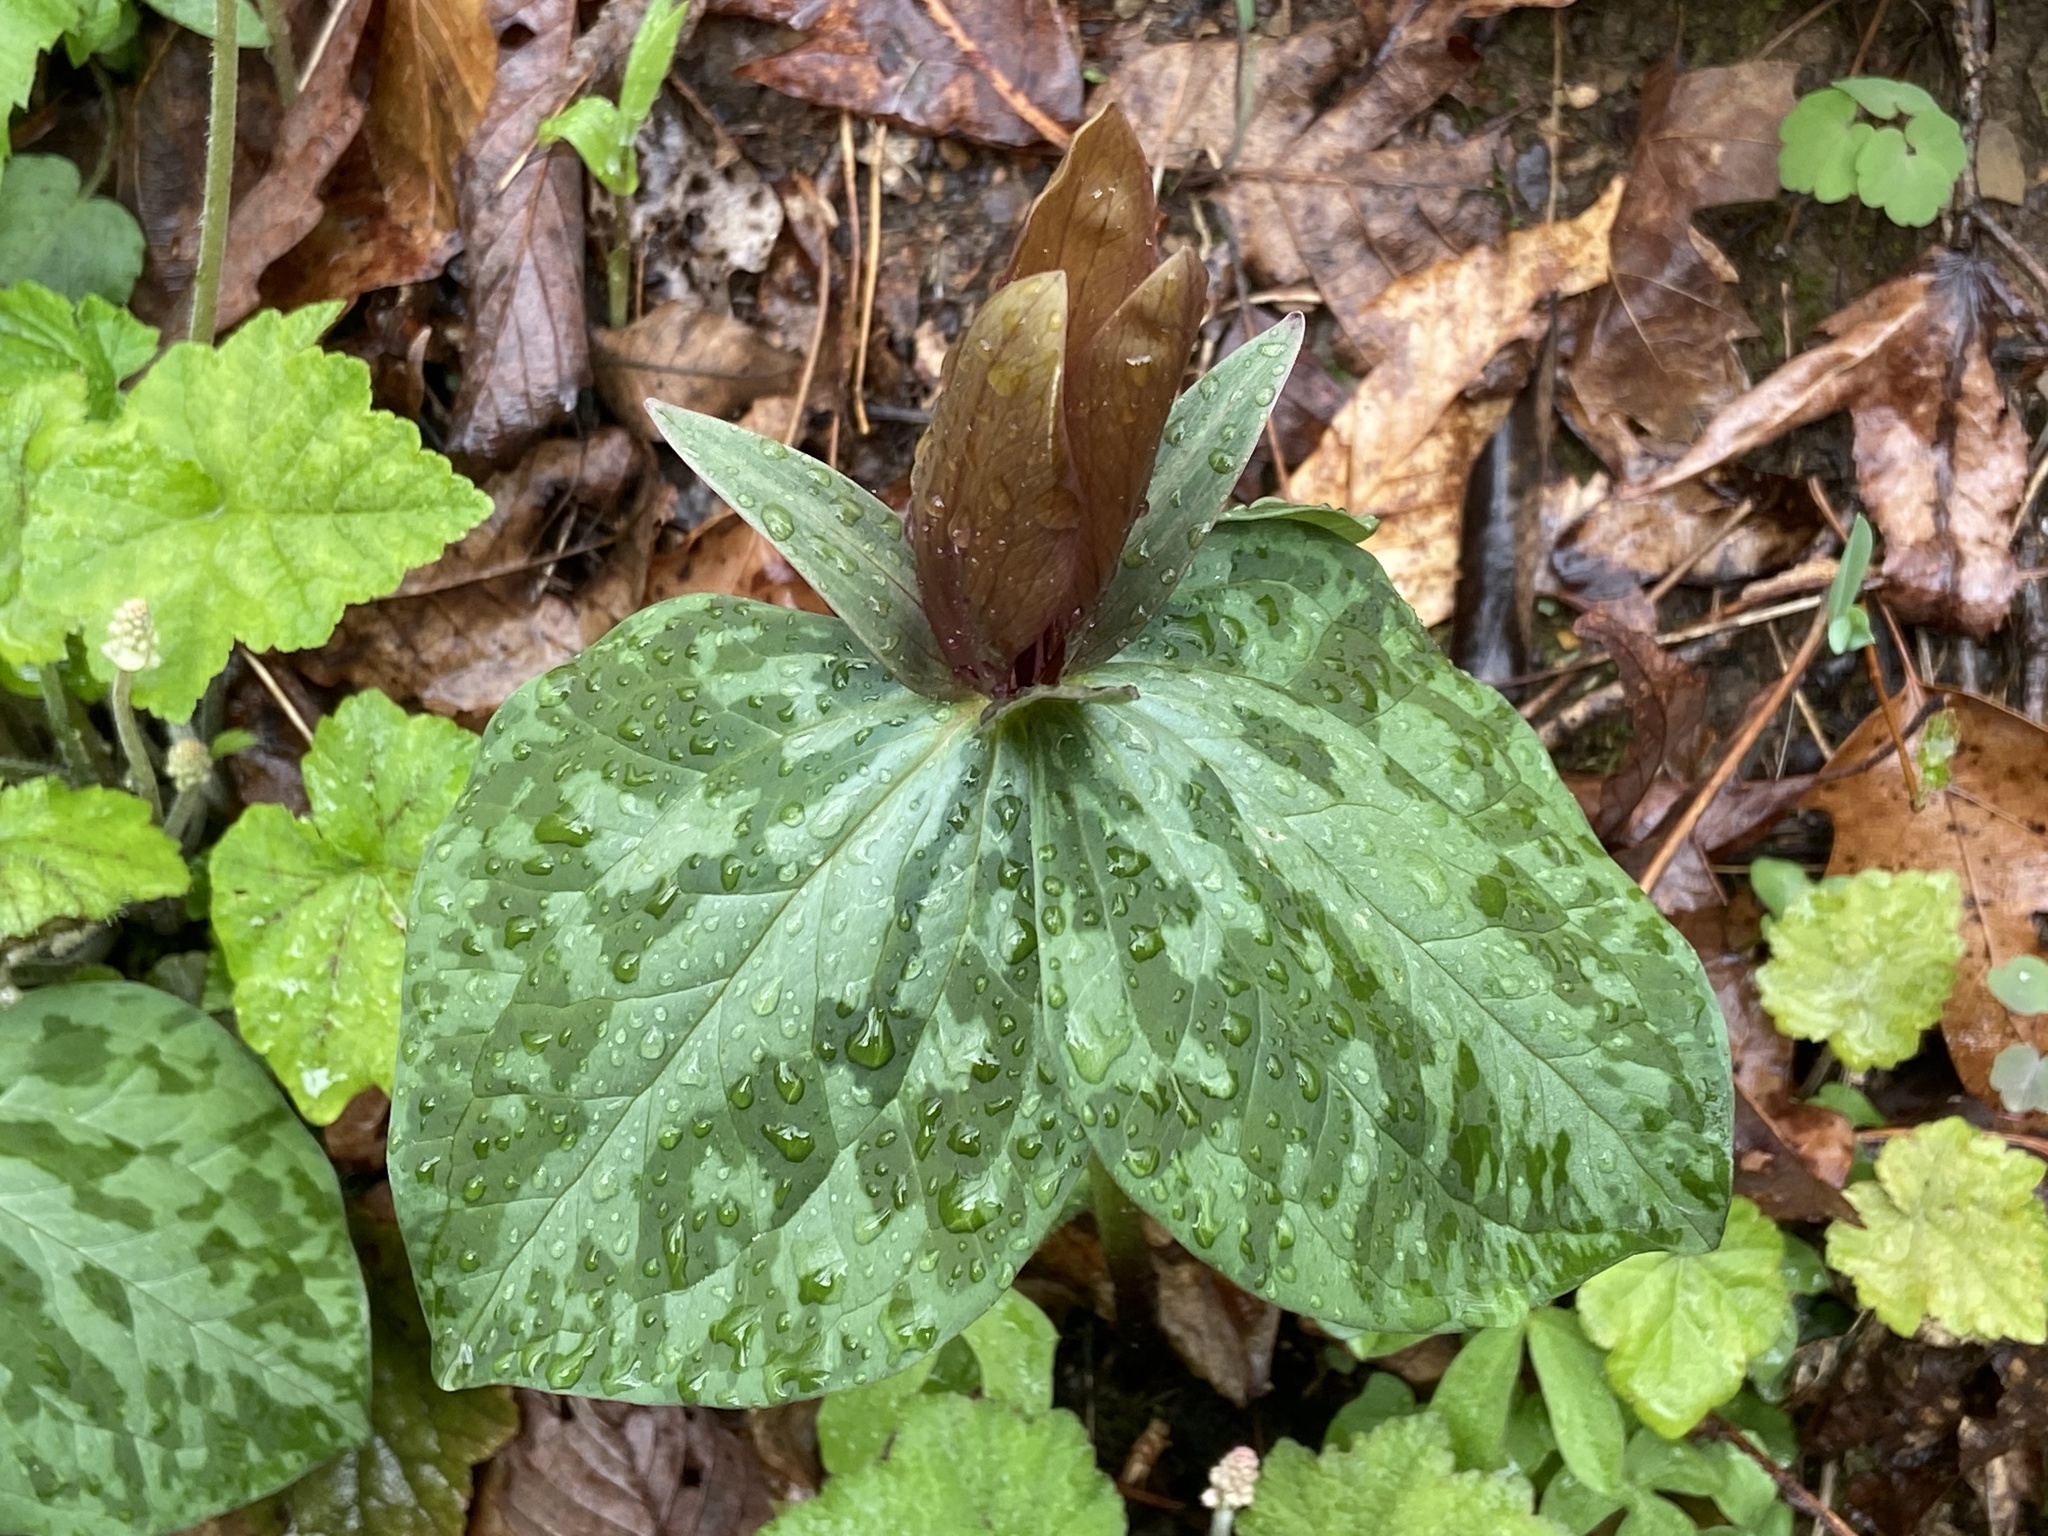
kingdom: Plantae
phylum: Tracheophyta
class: Liliopsida
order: Liliales
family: Melanthiaceae
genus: Trillium
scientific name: Trillium cuneatum
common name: Cuneate trillium
